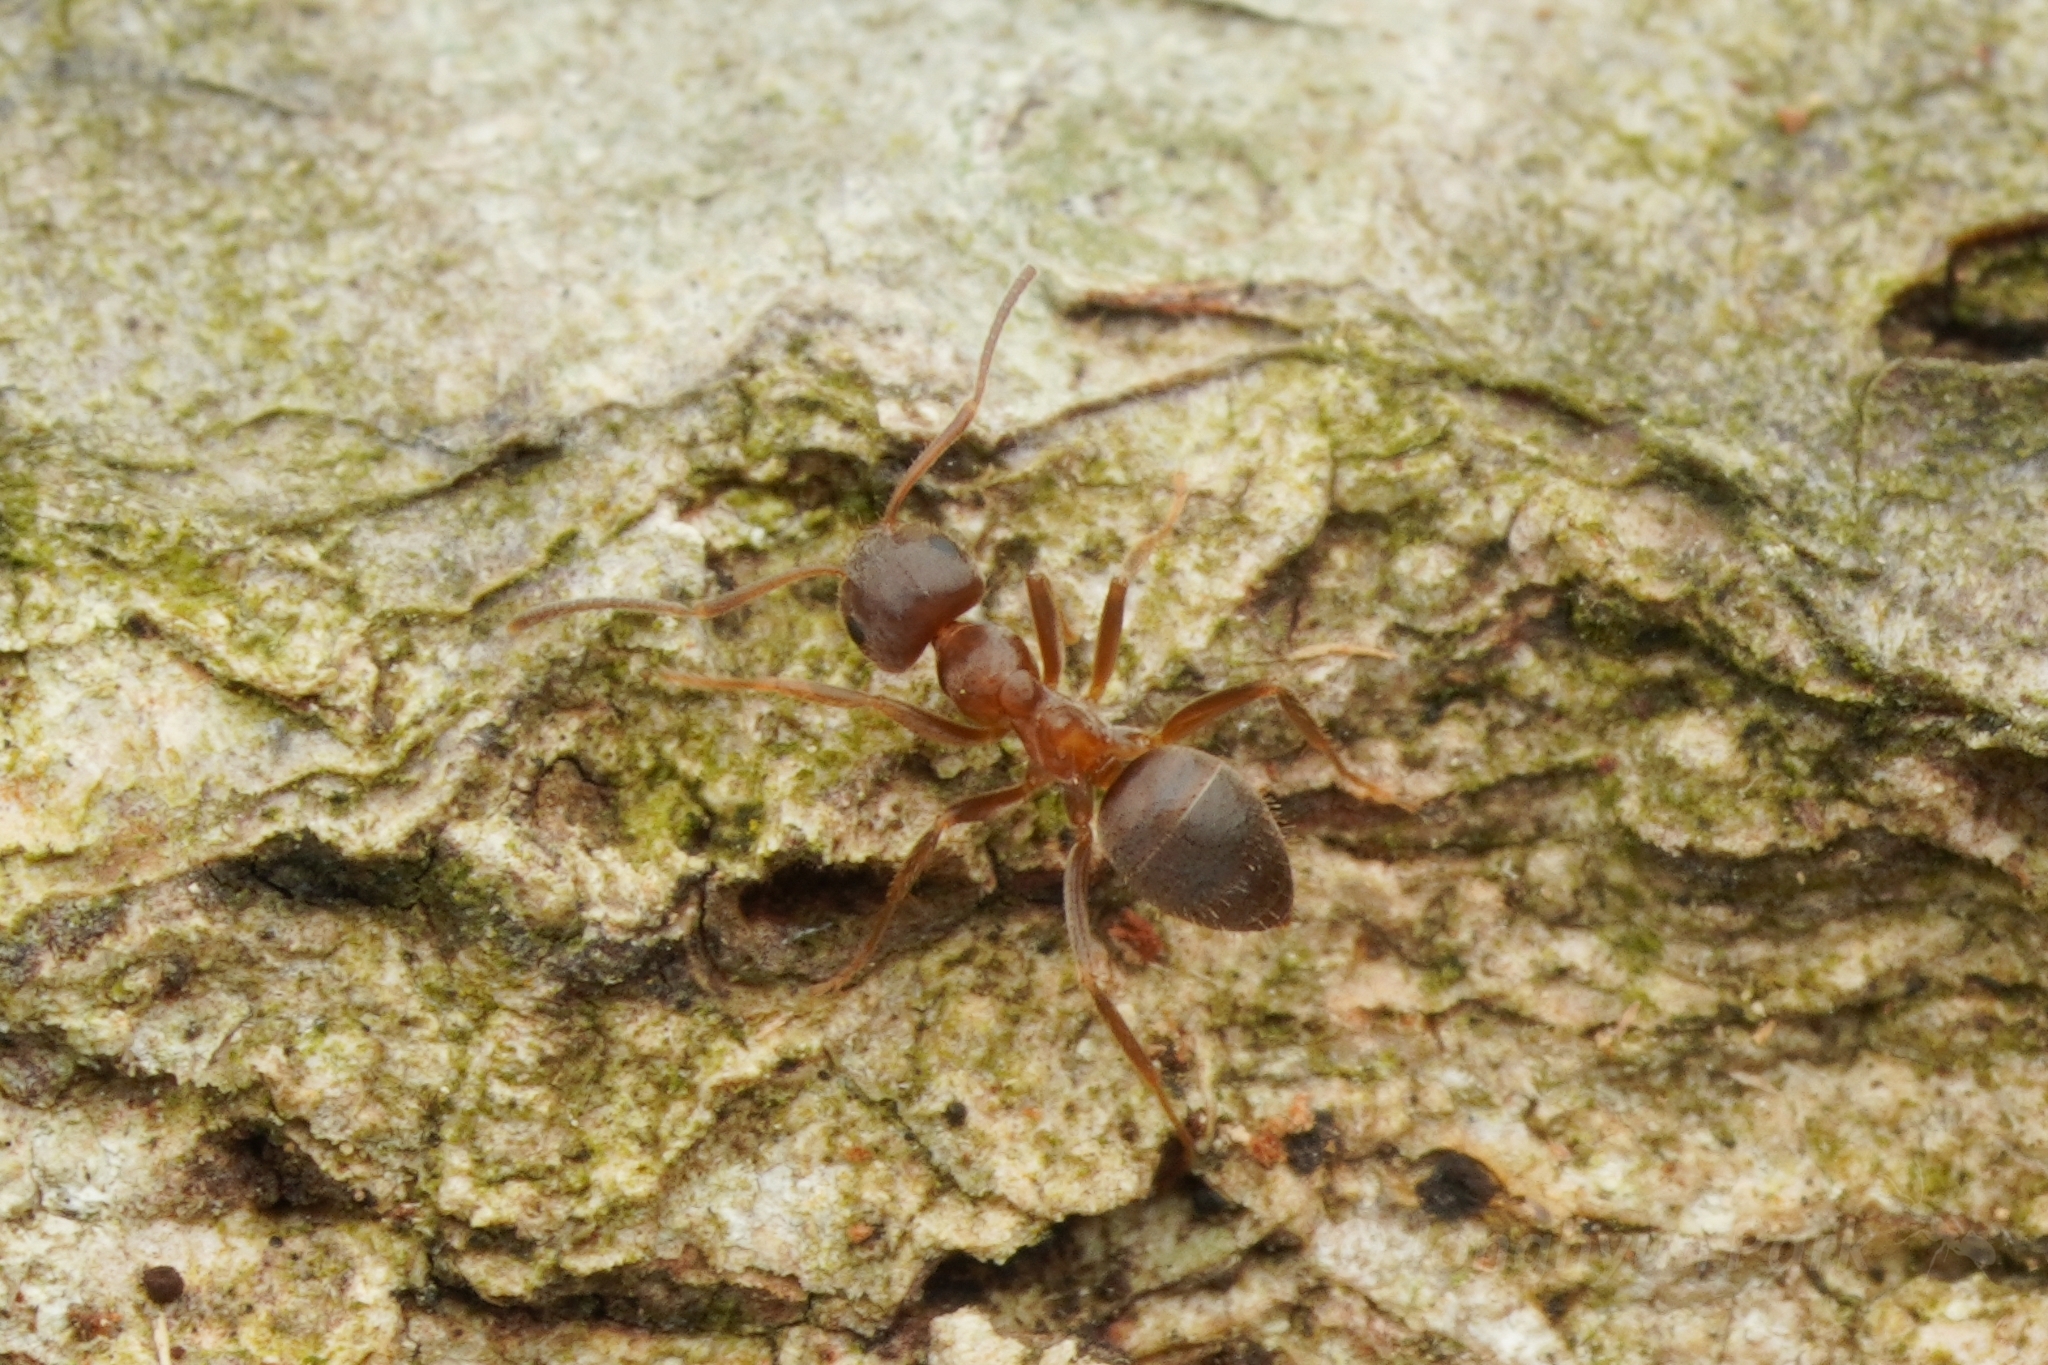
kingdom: Animalia
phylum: Arthropoda
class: Insecta
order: Hymenoptera
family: Formicidae
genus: Lasius
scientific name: Lasius hayashi
